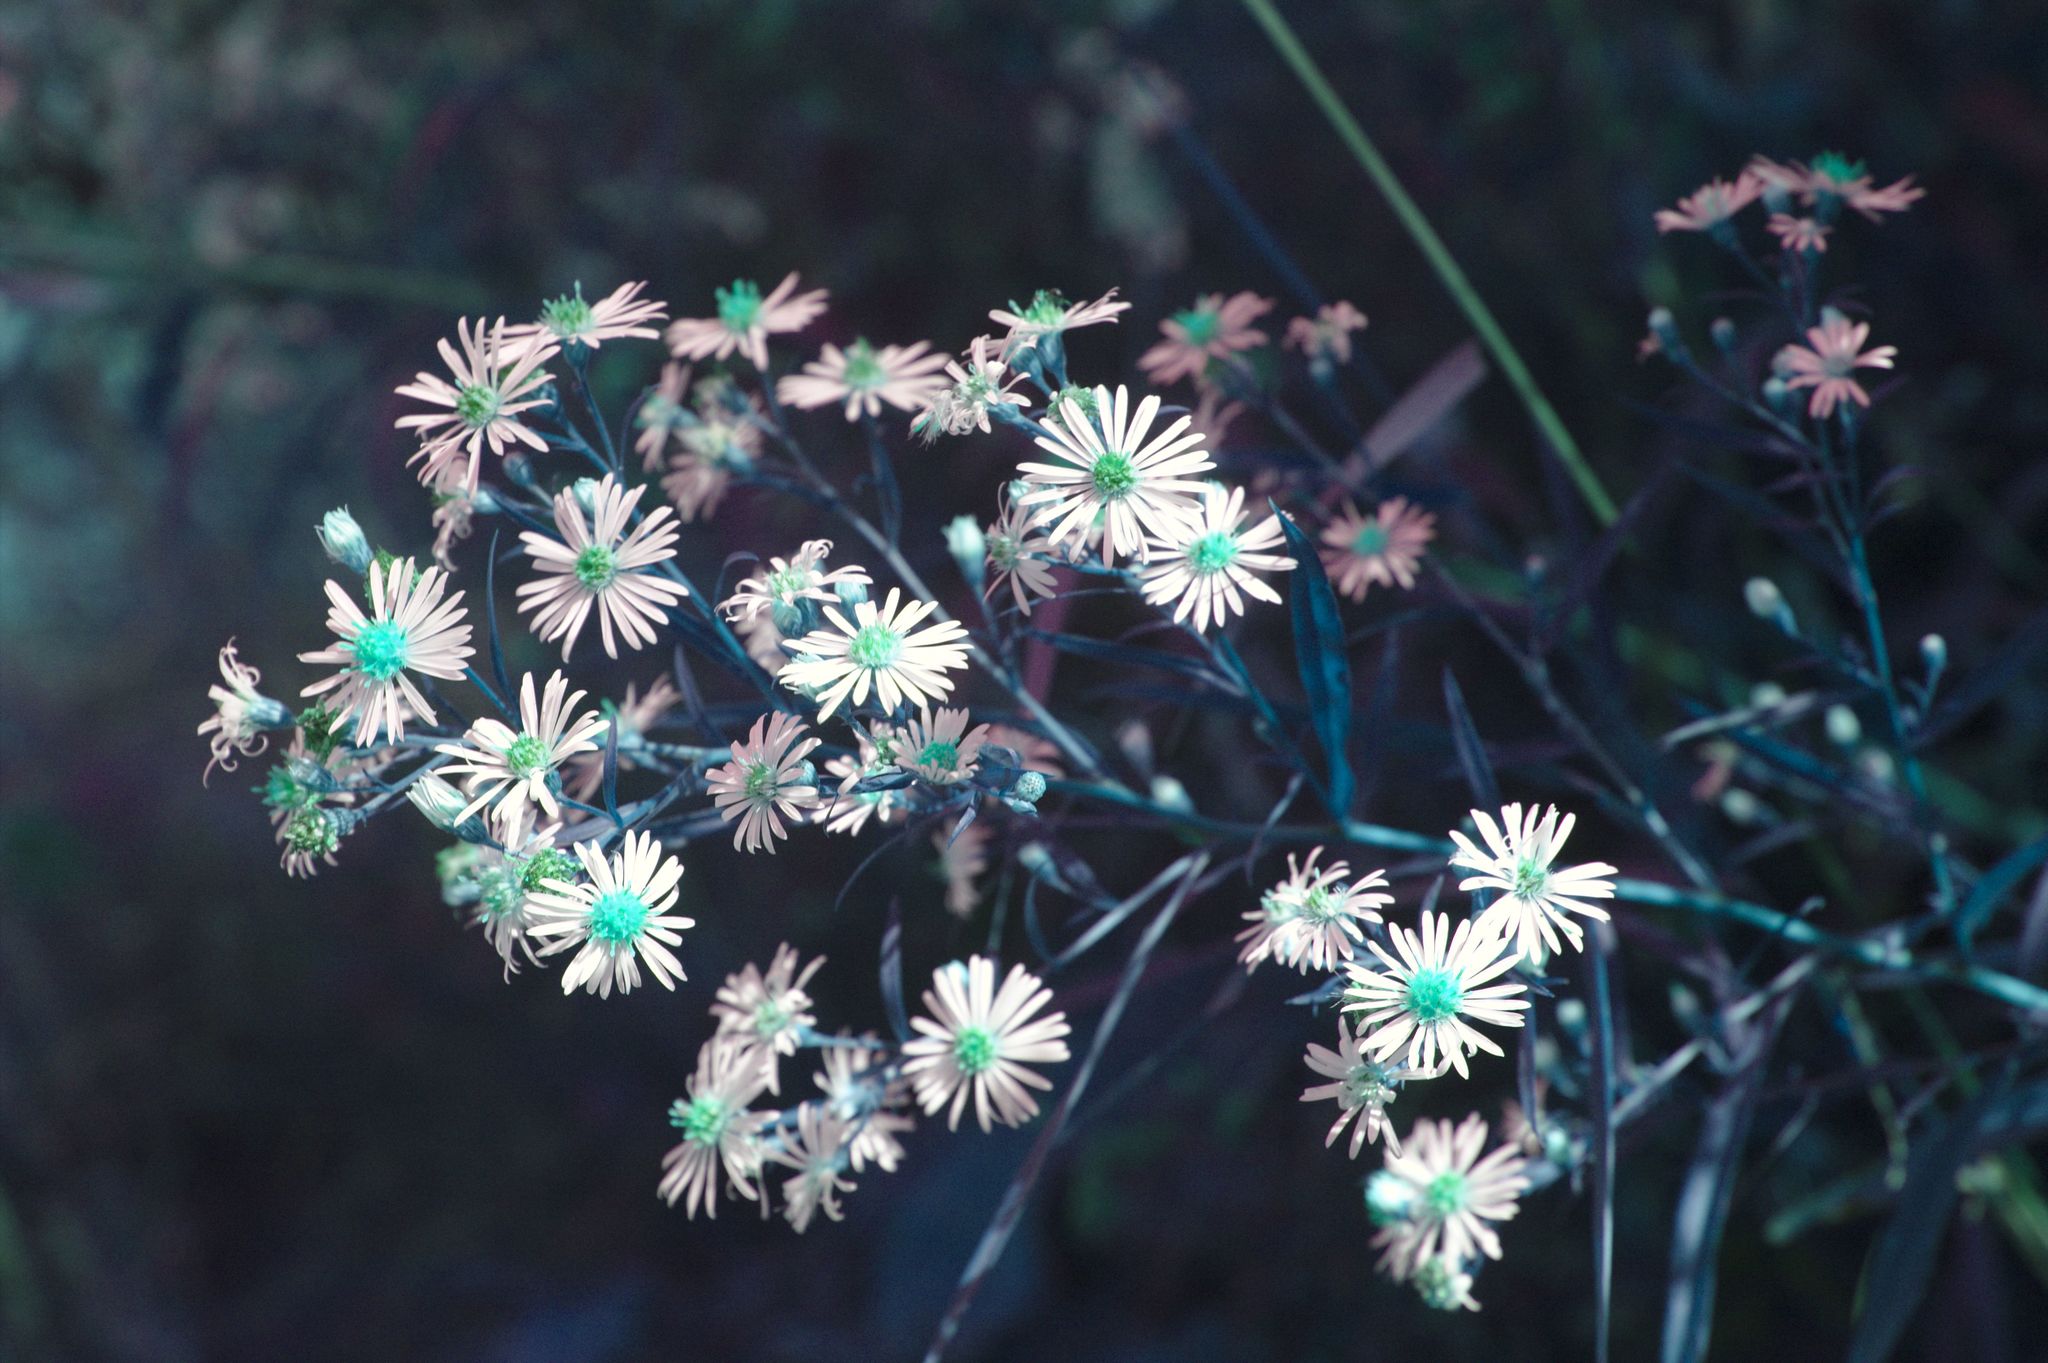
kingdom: Plantae
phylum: Tracheophyta
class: Magnoliopsida
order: Asterales
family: Asteraceae
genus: Symphyotrichum
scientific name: Symphyotrichum lanceolatum
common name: Panicled aster
